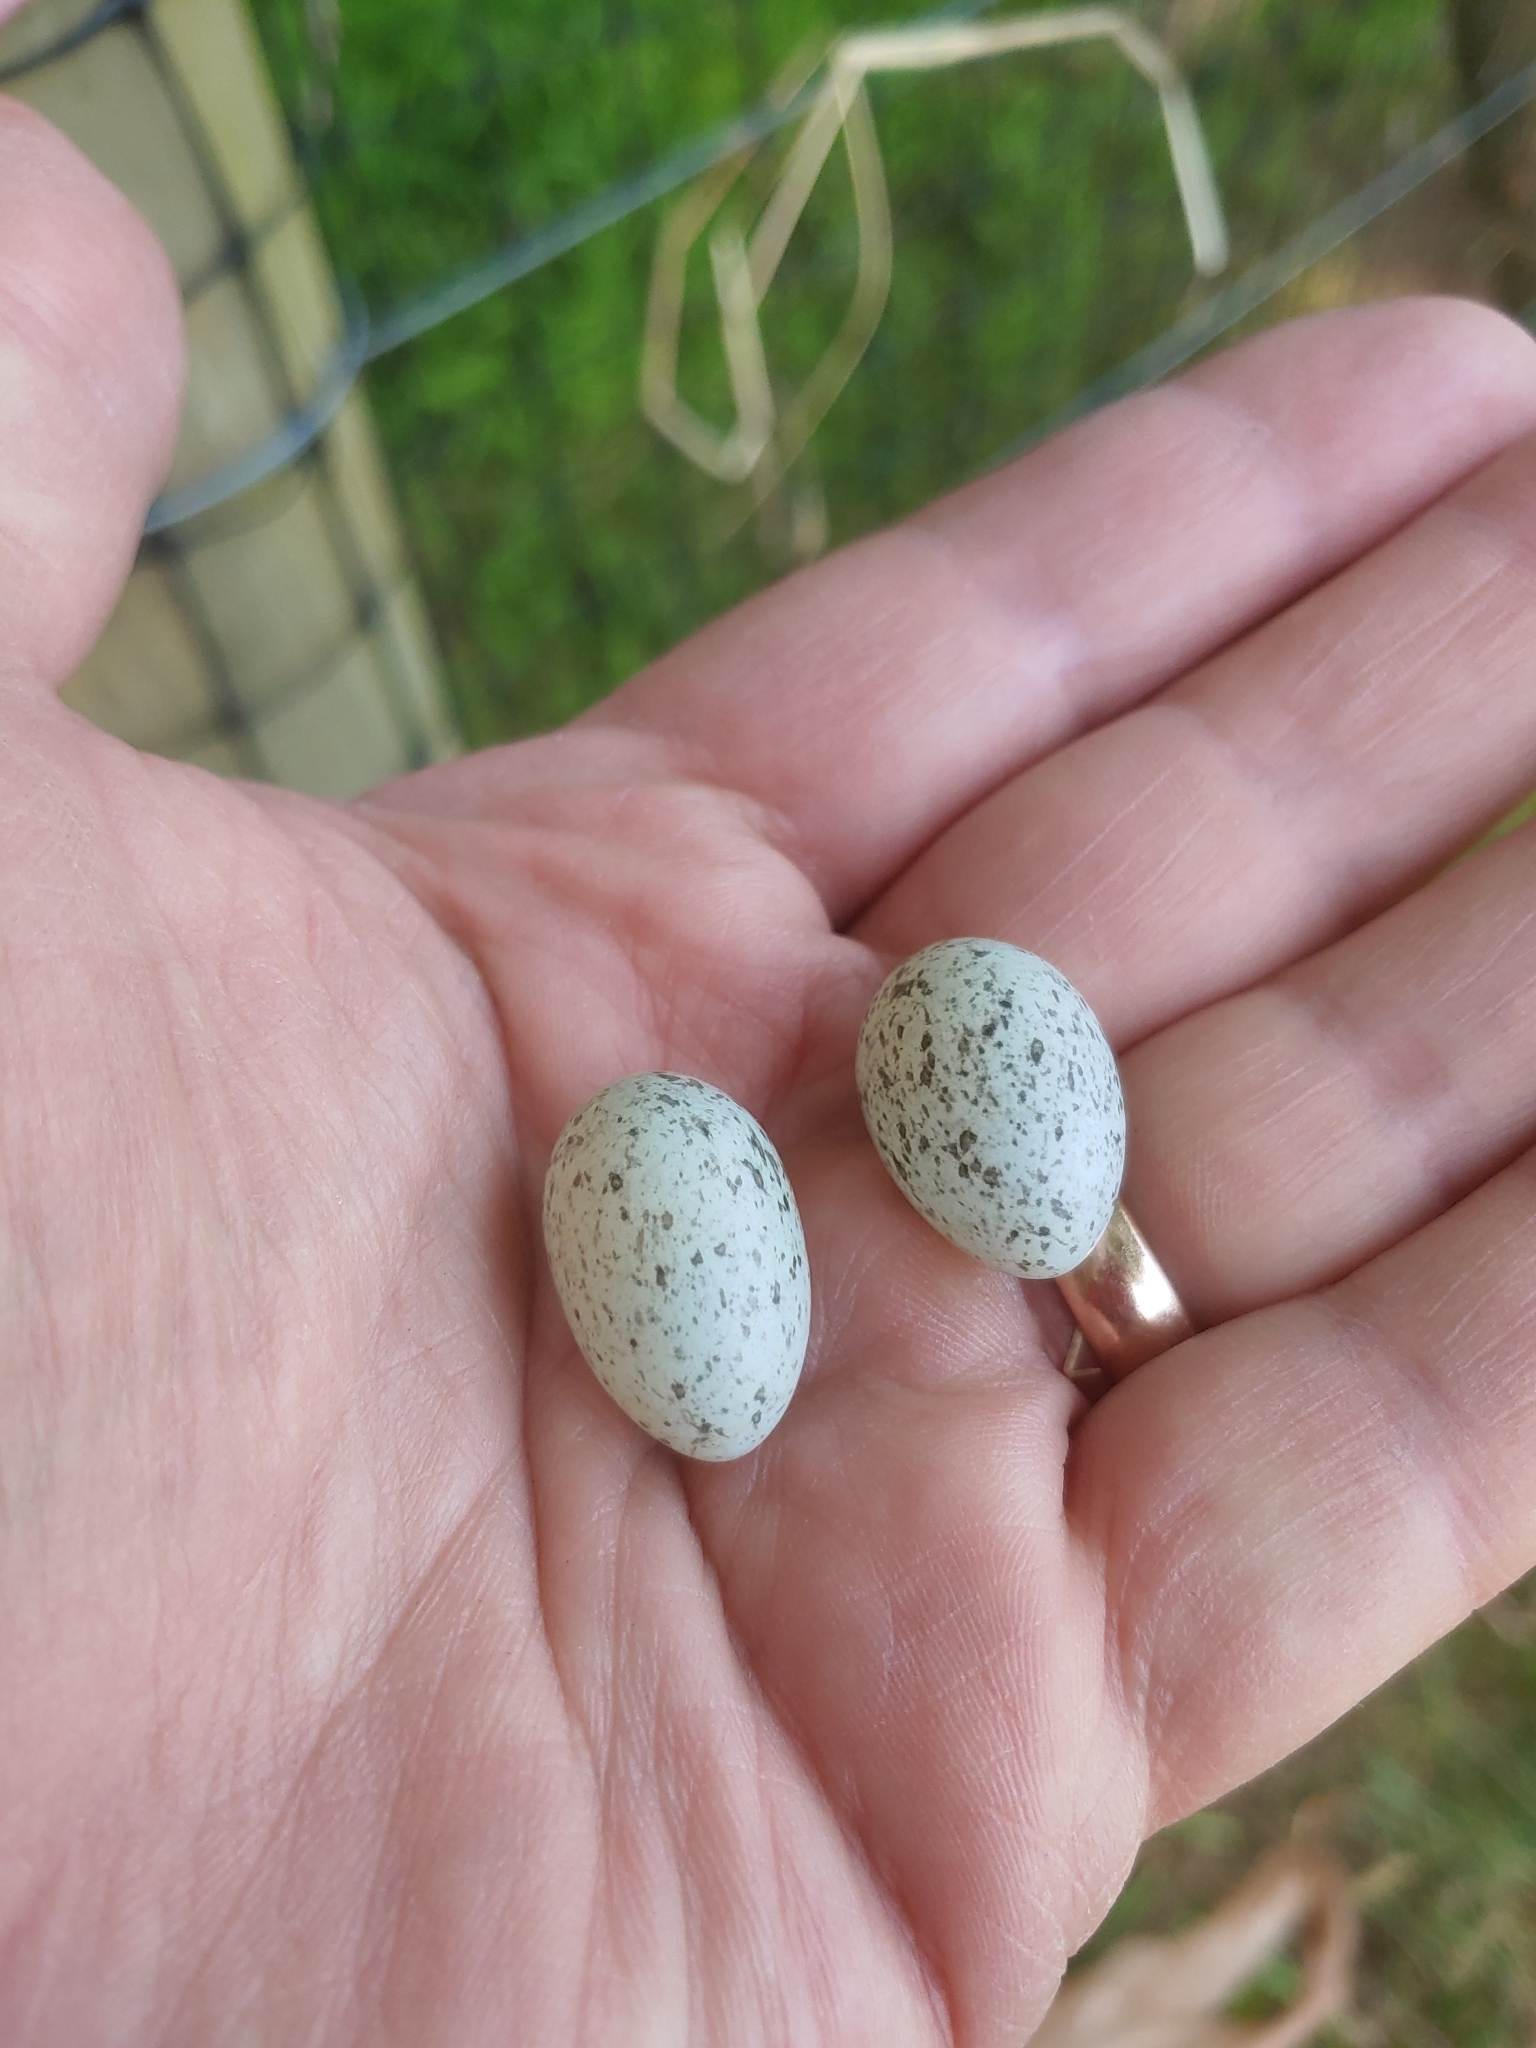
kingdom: Animalia
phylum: Chordata
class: Aves
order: Passeriformes
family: Passeridae
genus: Passer
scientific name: Passer domesticus
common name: House sparrow
